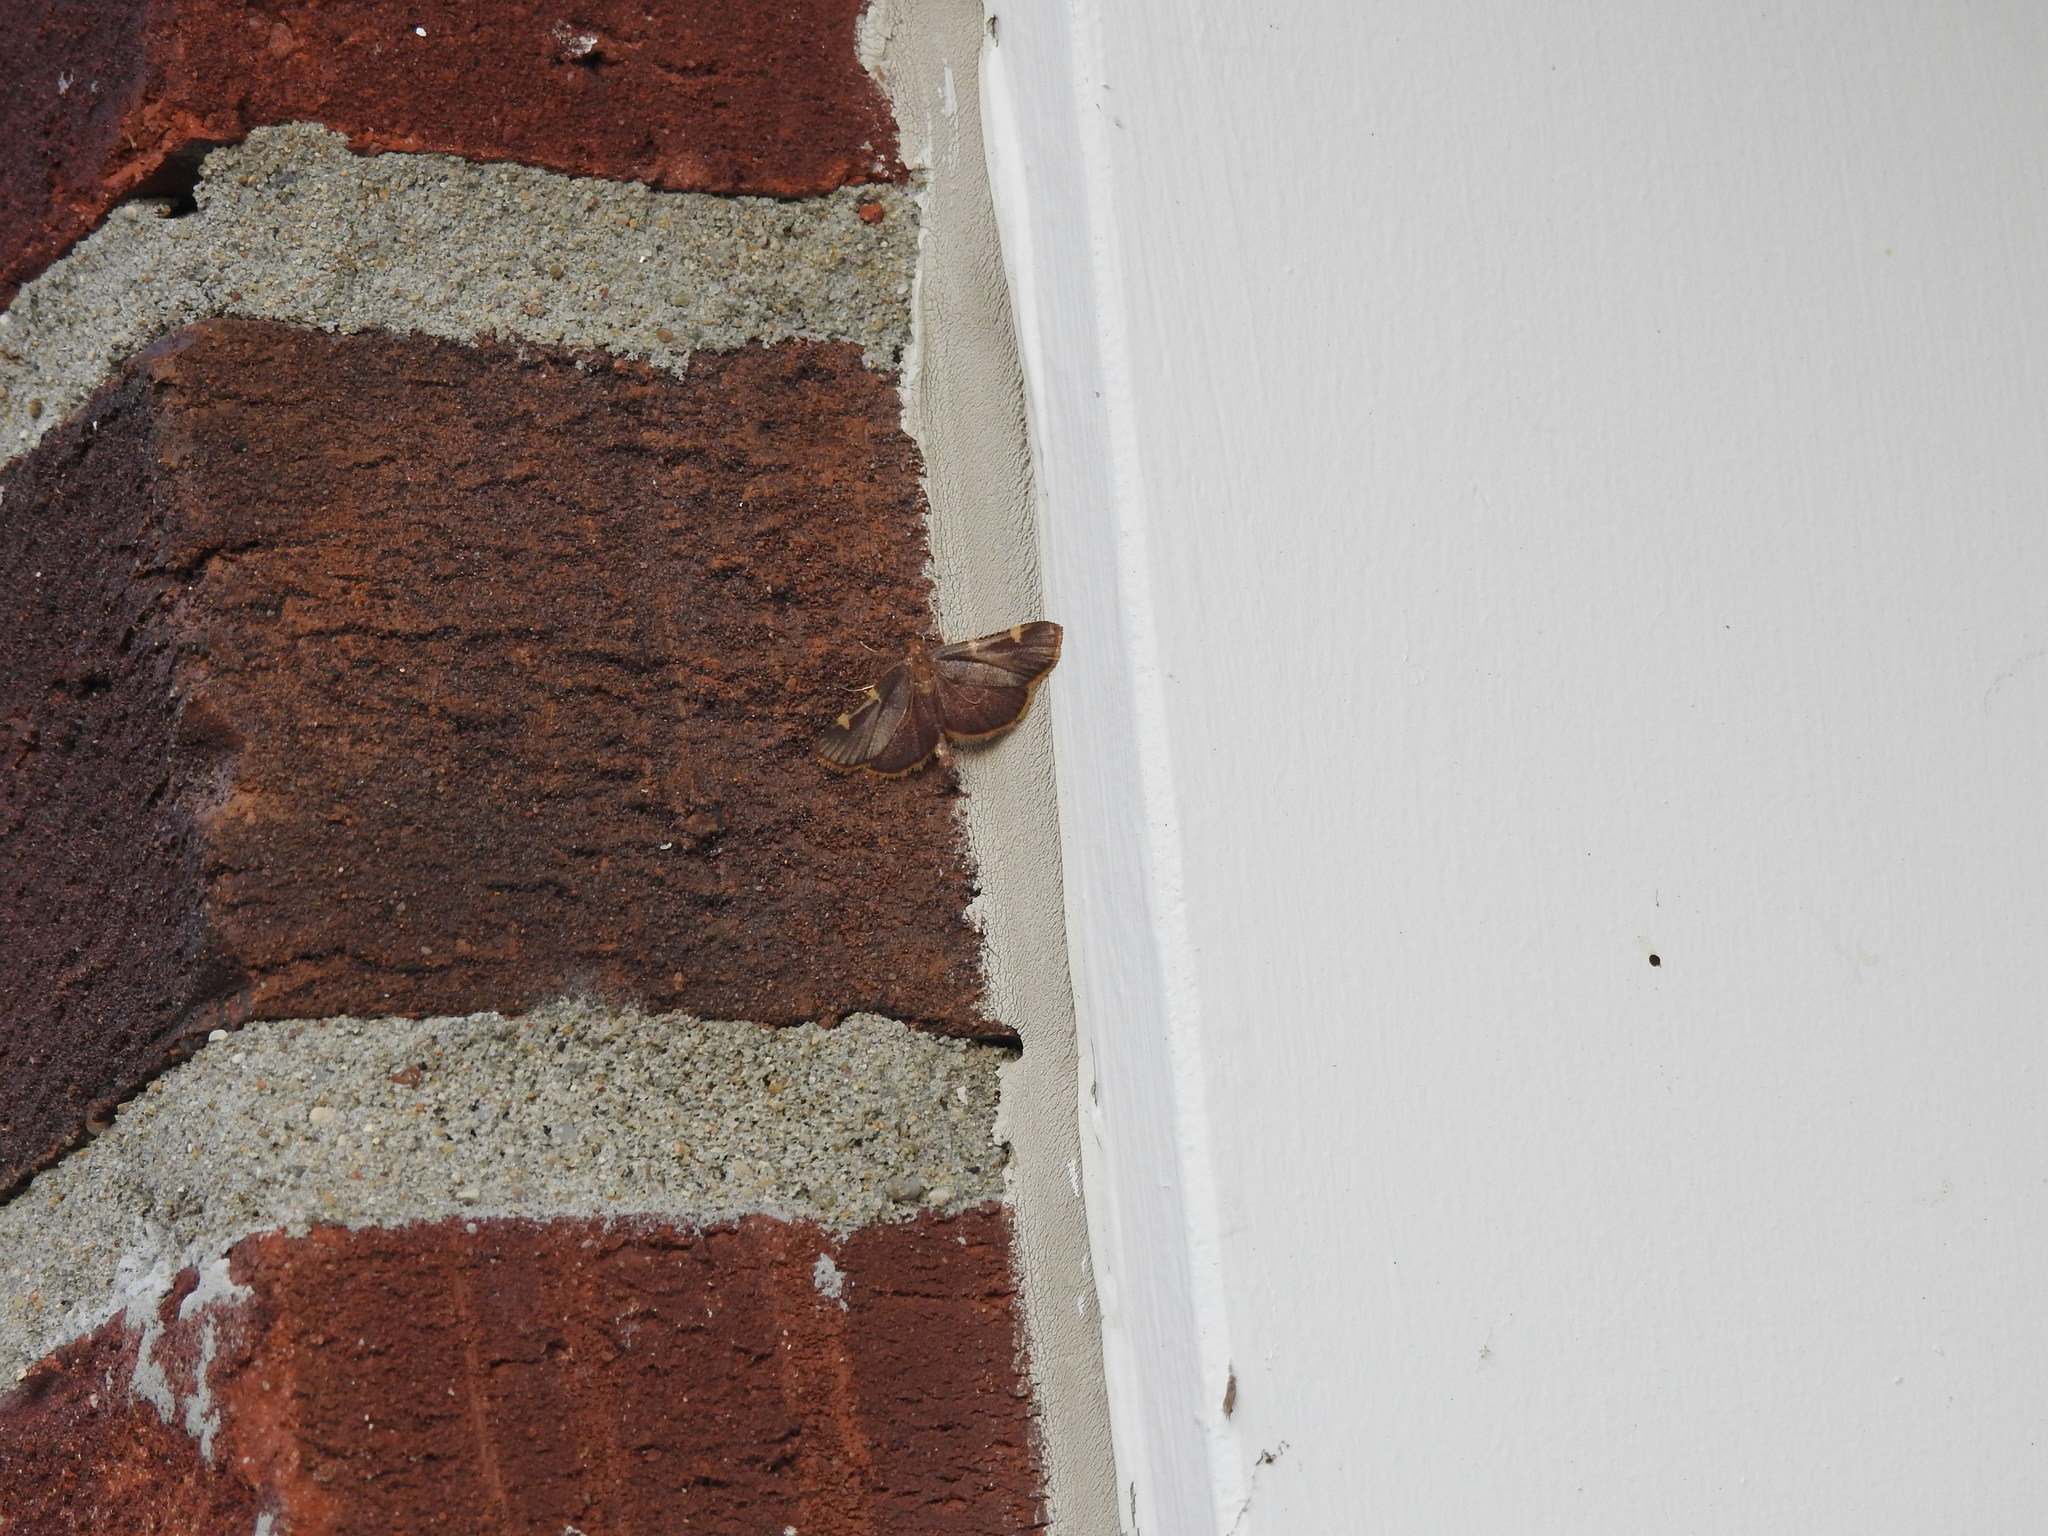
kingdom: Animalia
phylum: Arthropoda
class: Insecta
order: Lepidoptera
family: Pyralidae
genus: Hypsopygia
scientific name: Hypsopygia olinalis
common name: Yellow-fringed dolichomia moth
